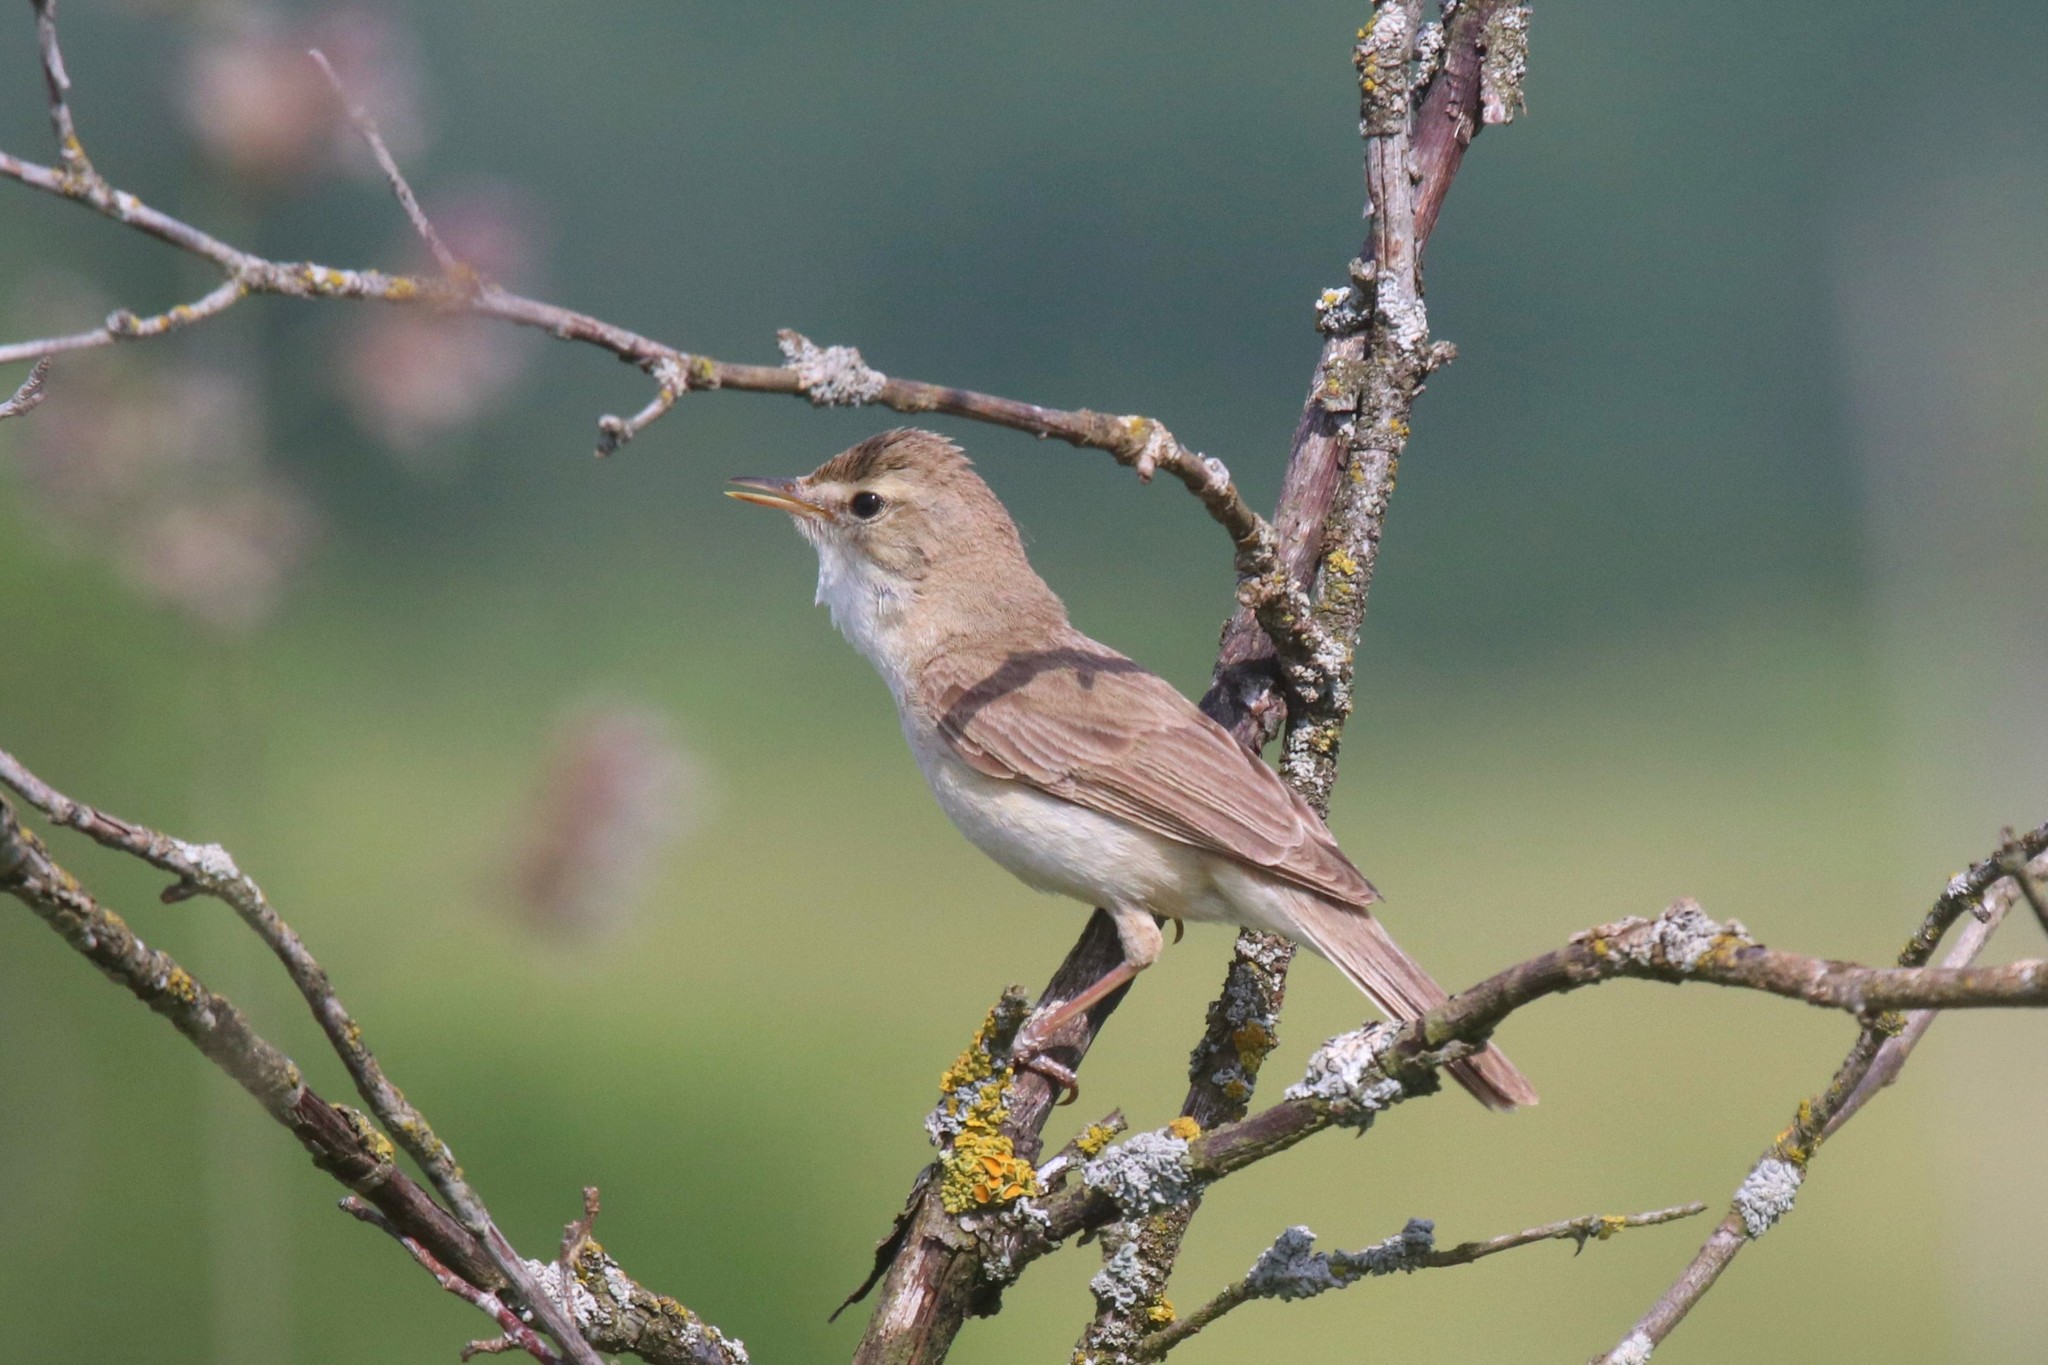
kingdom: Animalia
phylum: Chordata
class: Aves
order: Passeriformes
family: Acrocephalidae
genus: Iduna
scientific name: Iduna caligata
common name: Booted warbler
